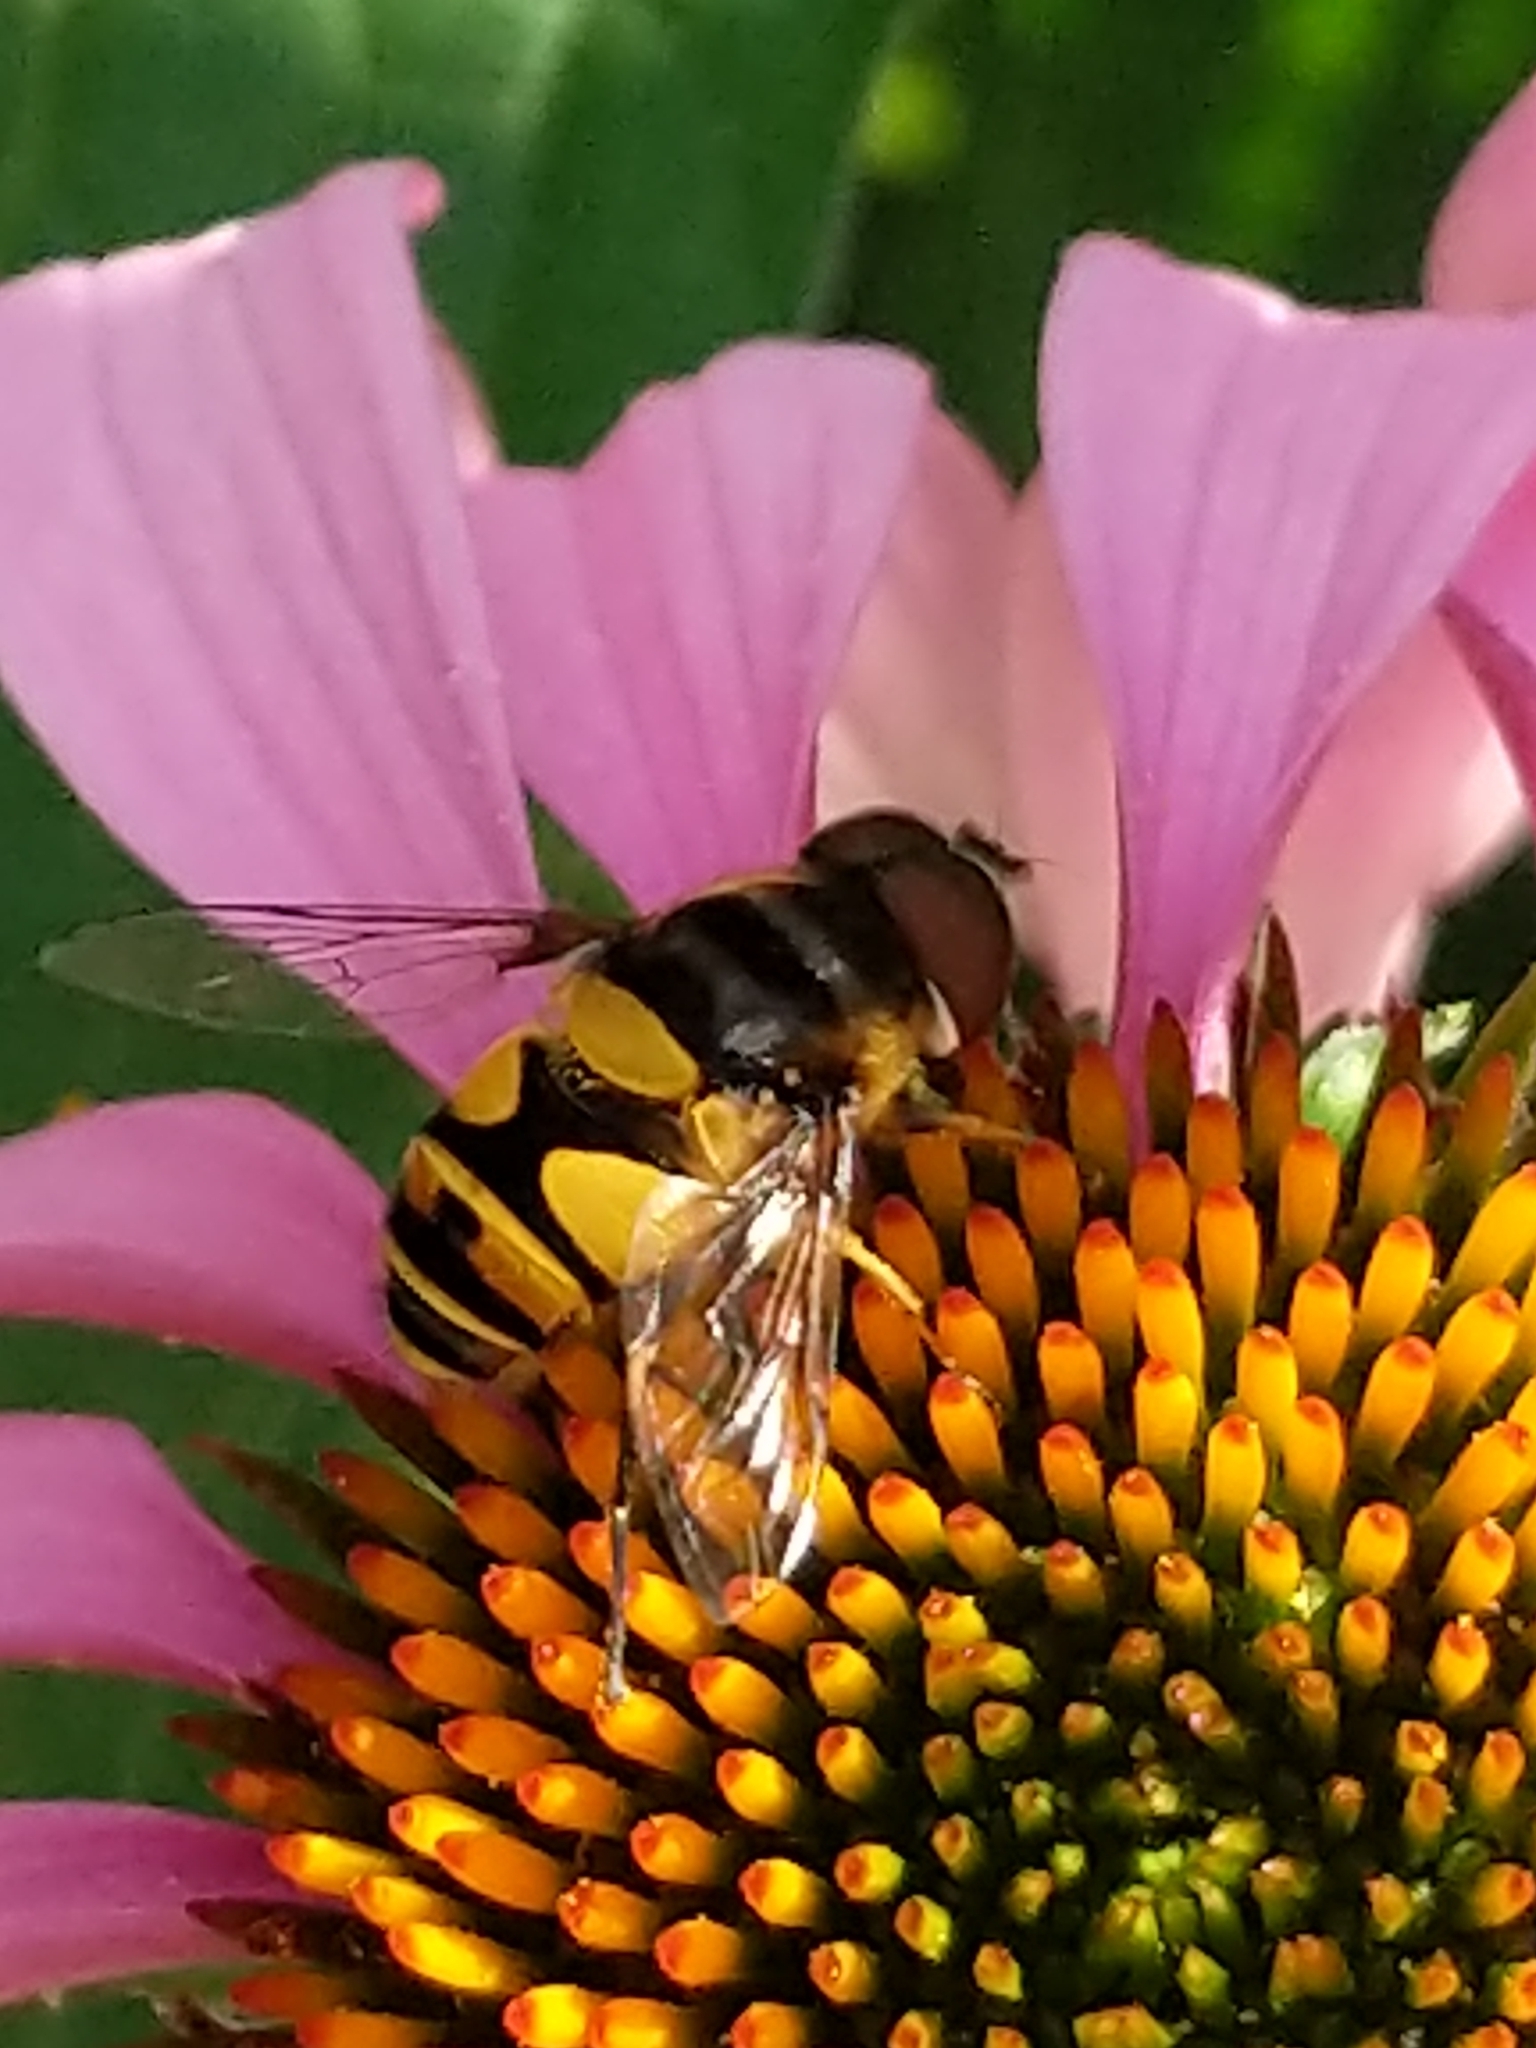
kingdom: Animalia
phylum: Arthropoda
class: Insecta
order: Diptera
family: Syrphidae
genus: Eristalis
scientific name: Eristalis transversa
